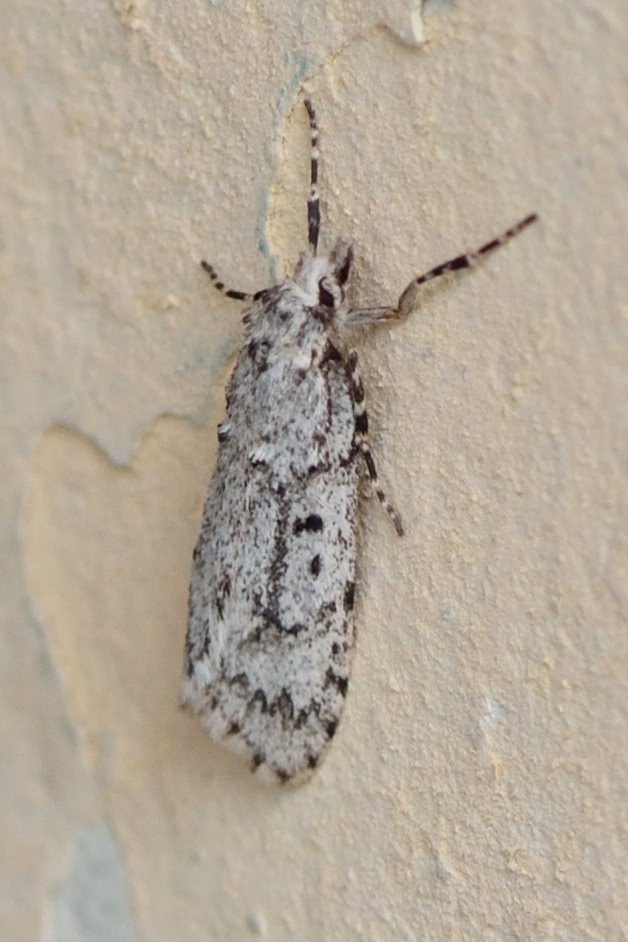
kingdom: Animalia
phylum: Arthropoda
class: Insecta
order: Lepidoptera
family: Lypusidae
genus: Diurnea
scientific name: Diurnea fagella
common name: March tubic
